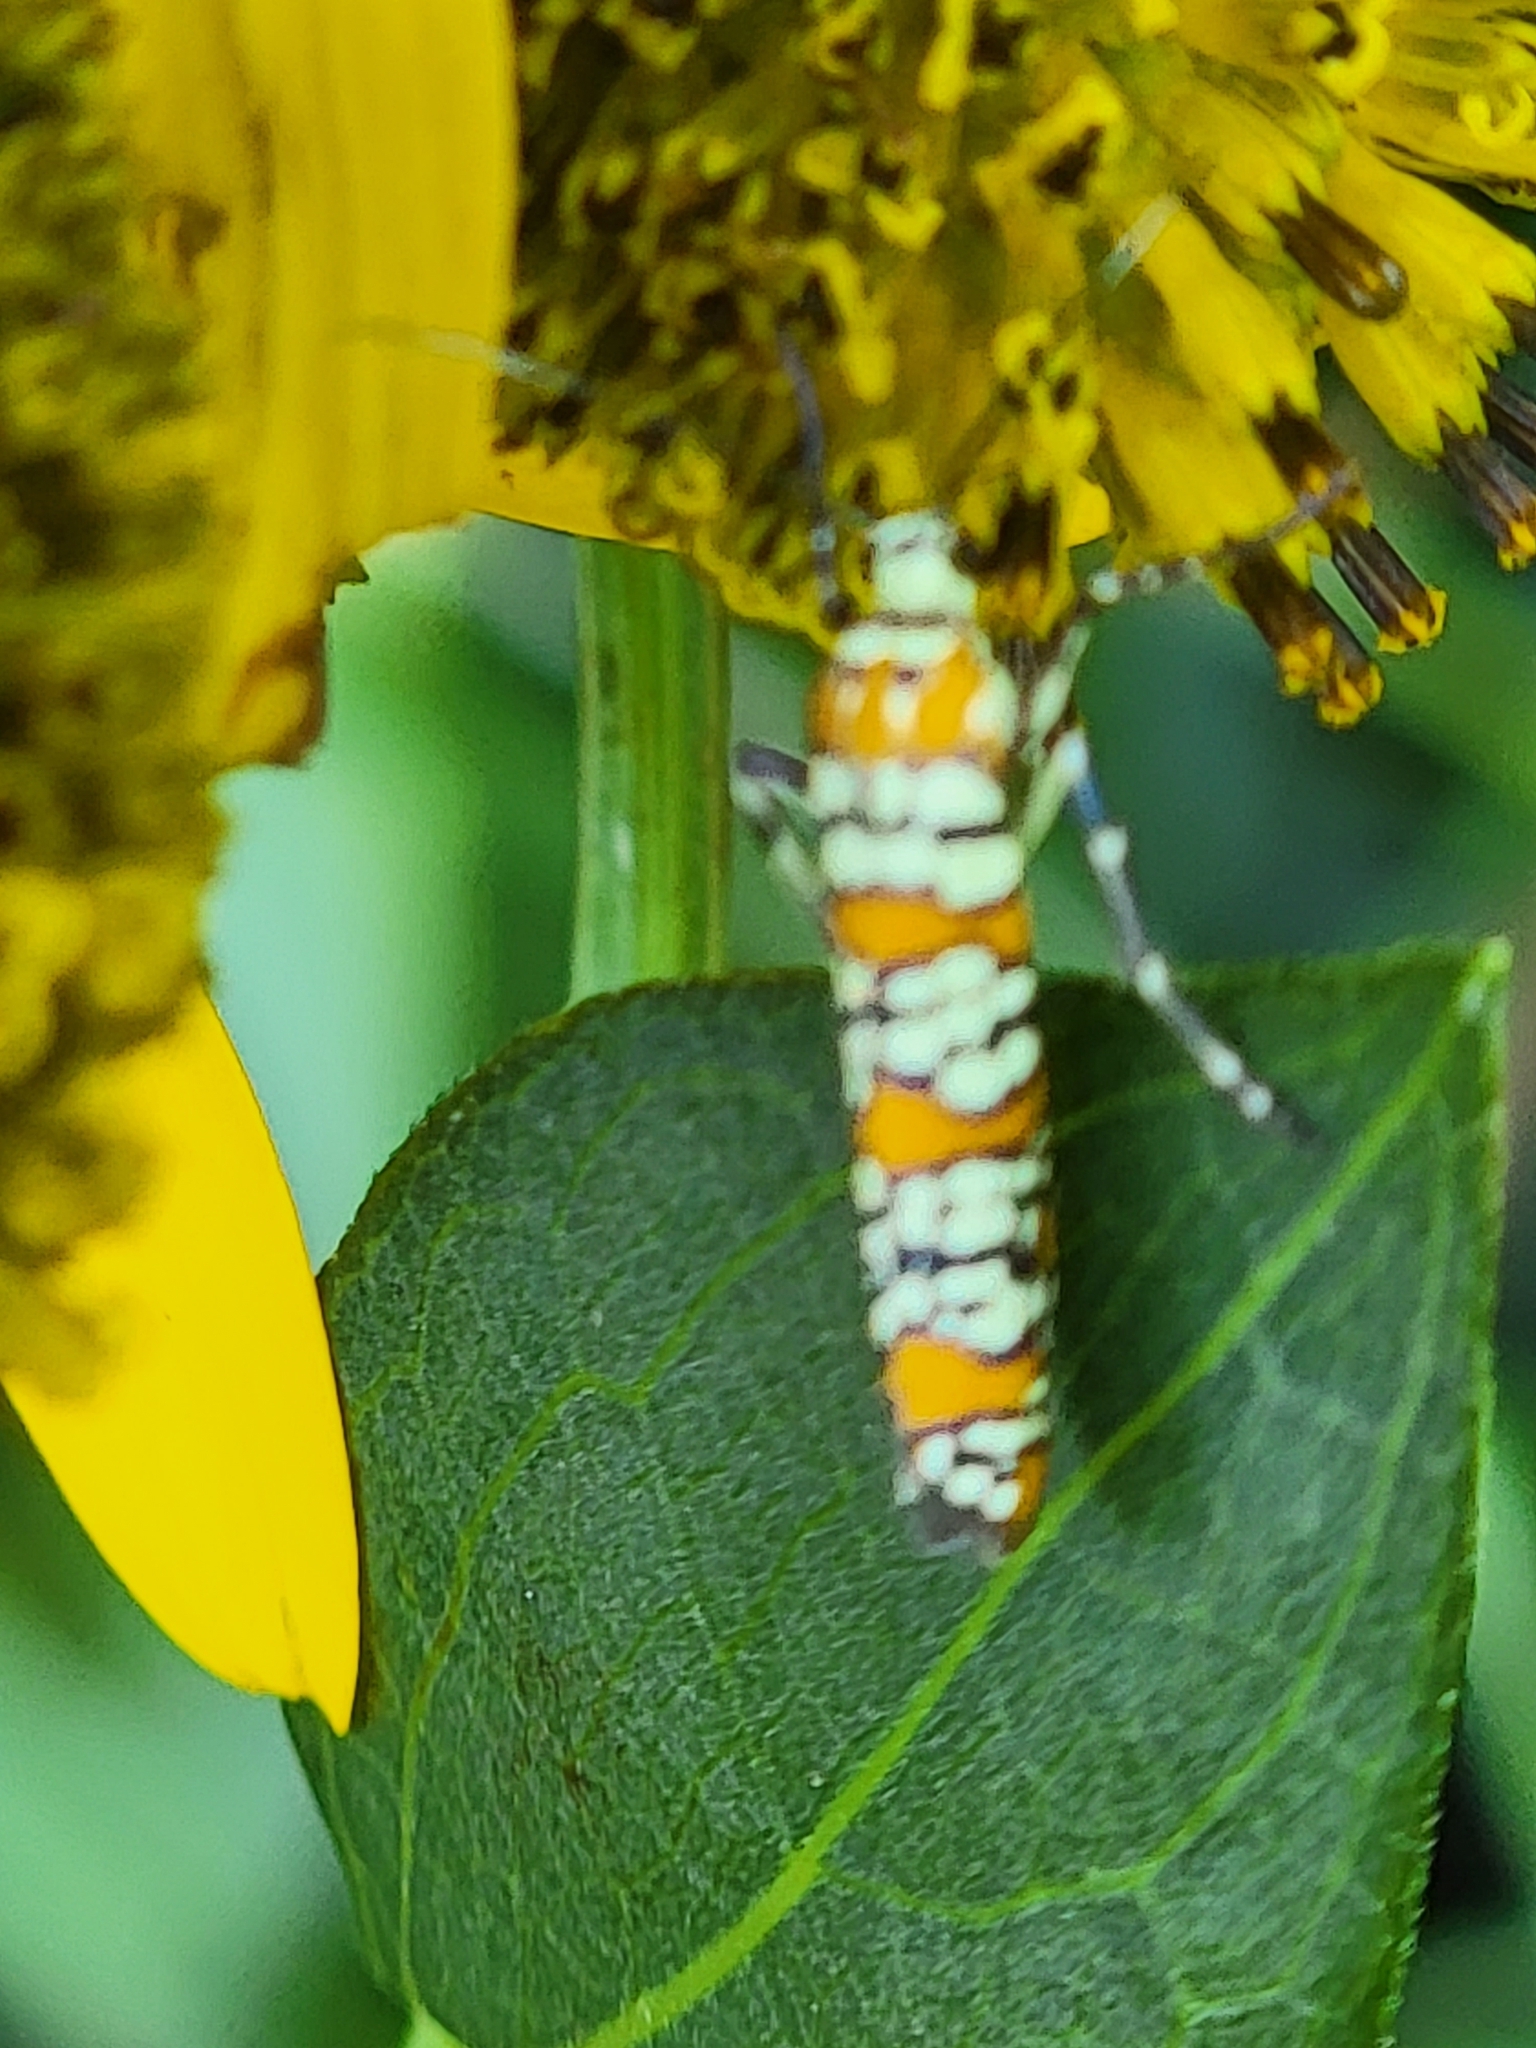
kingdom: Animalia
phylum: Arthropoda
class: Insecta
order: Lepidoptera
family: Attevidae
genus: Atteva
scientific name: Atteva punctella
